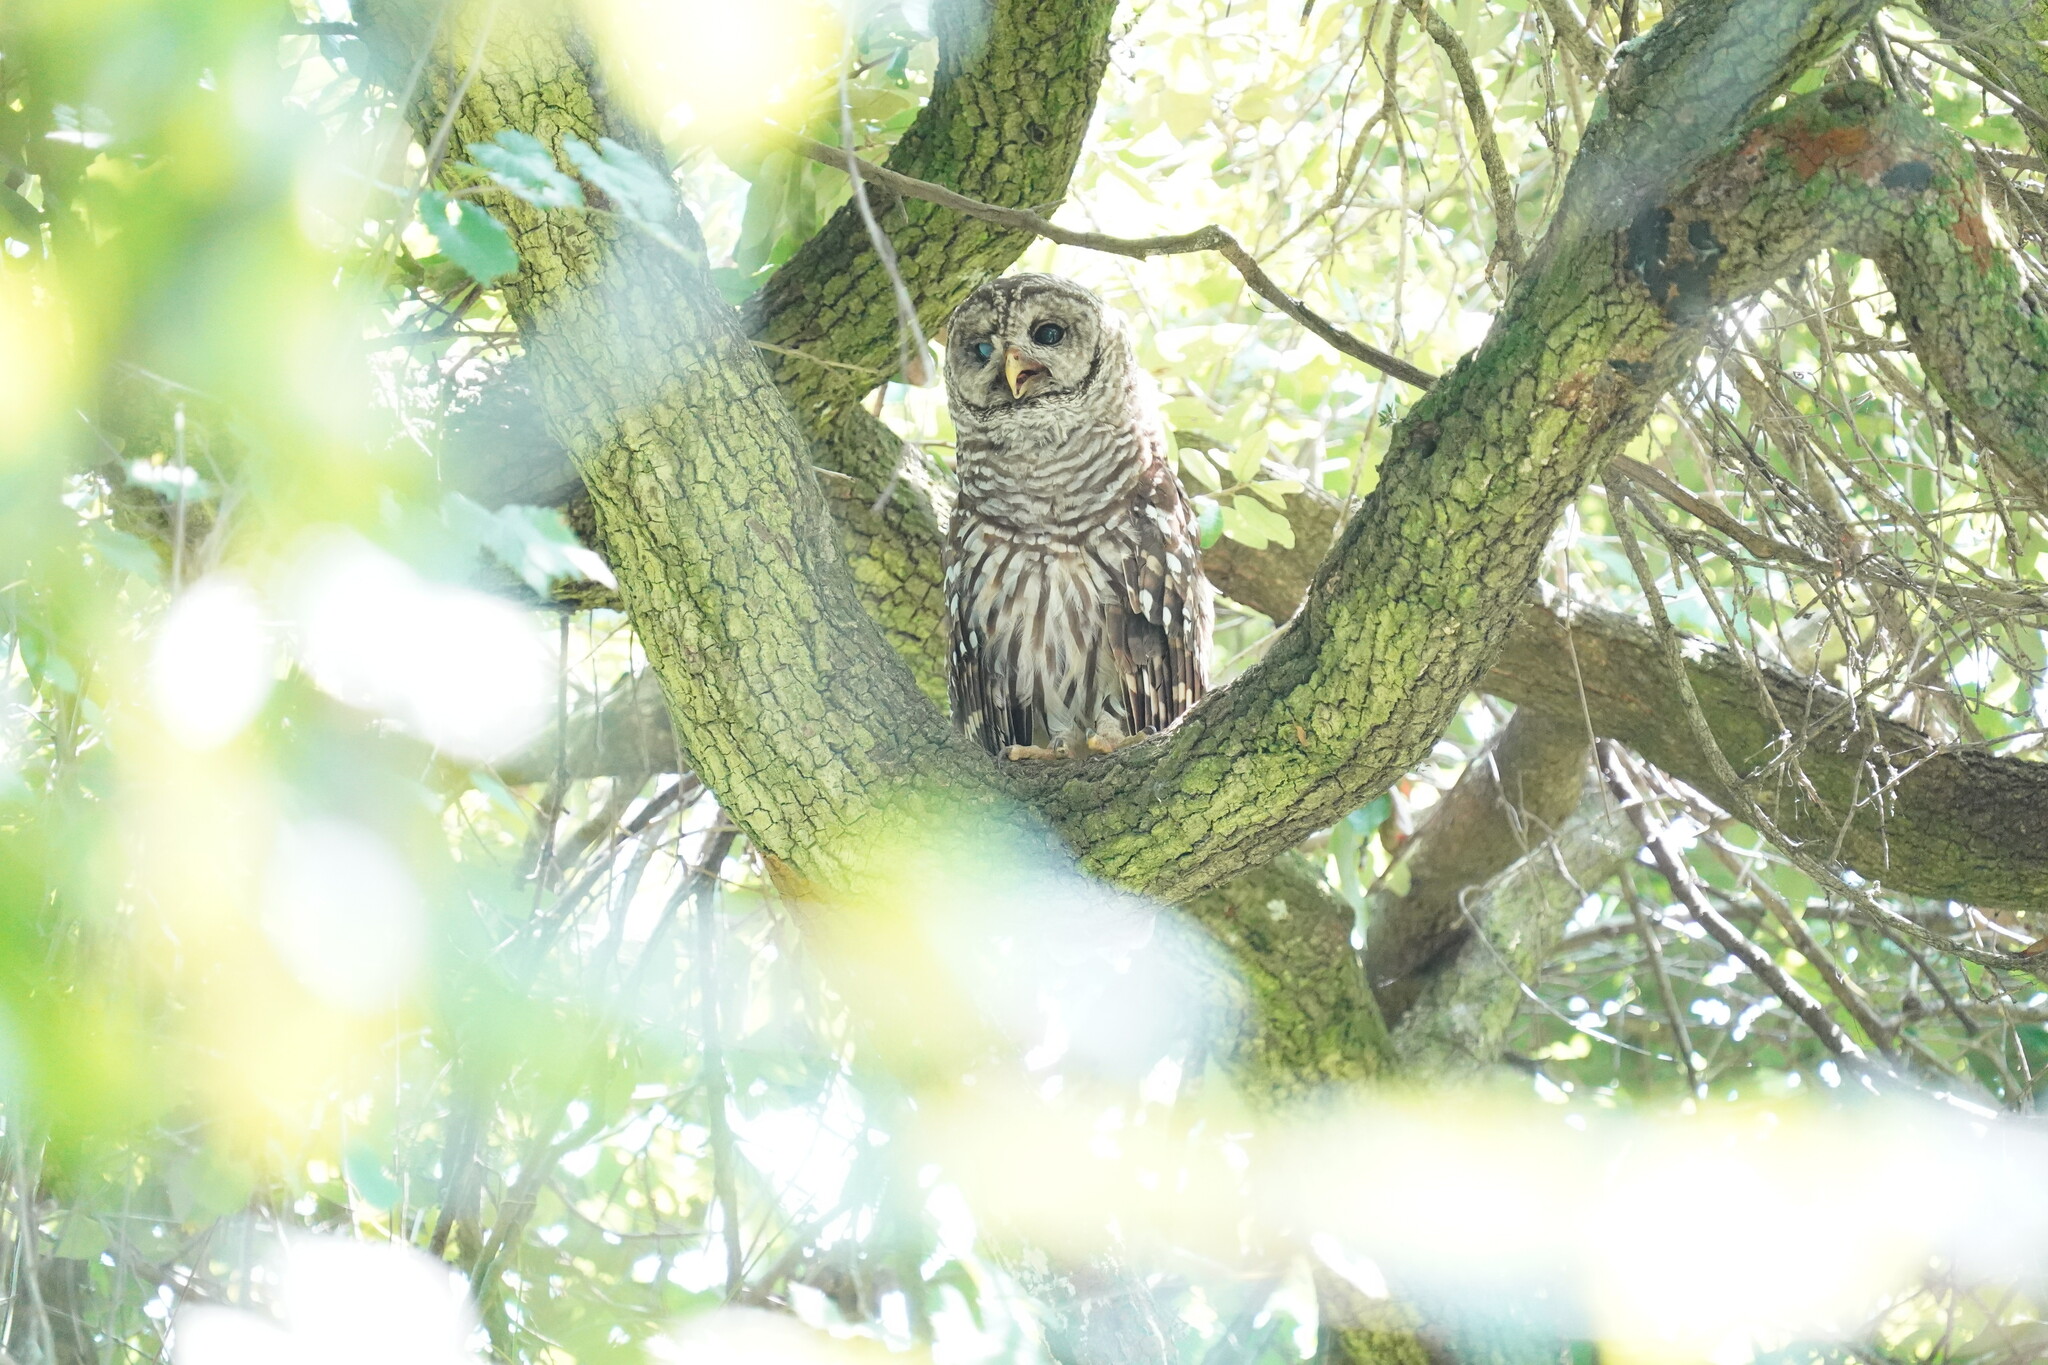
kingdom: Animalia
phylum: Chordata
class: Aves
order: Strigiformes
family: Strigidae
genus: Strix
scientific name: Strix varia
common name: Barred owl
